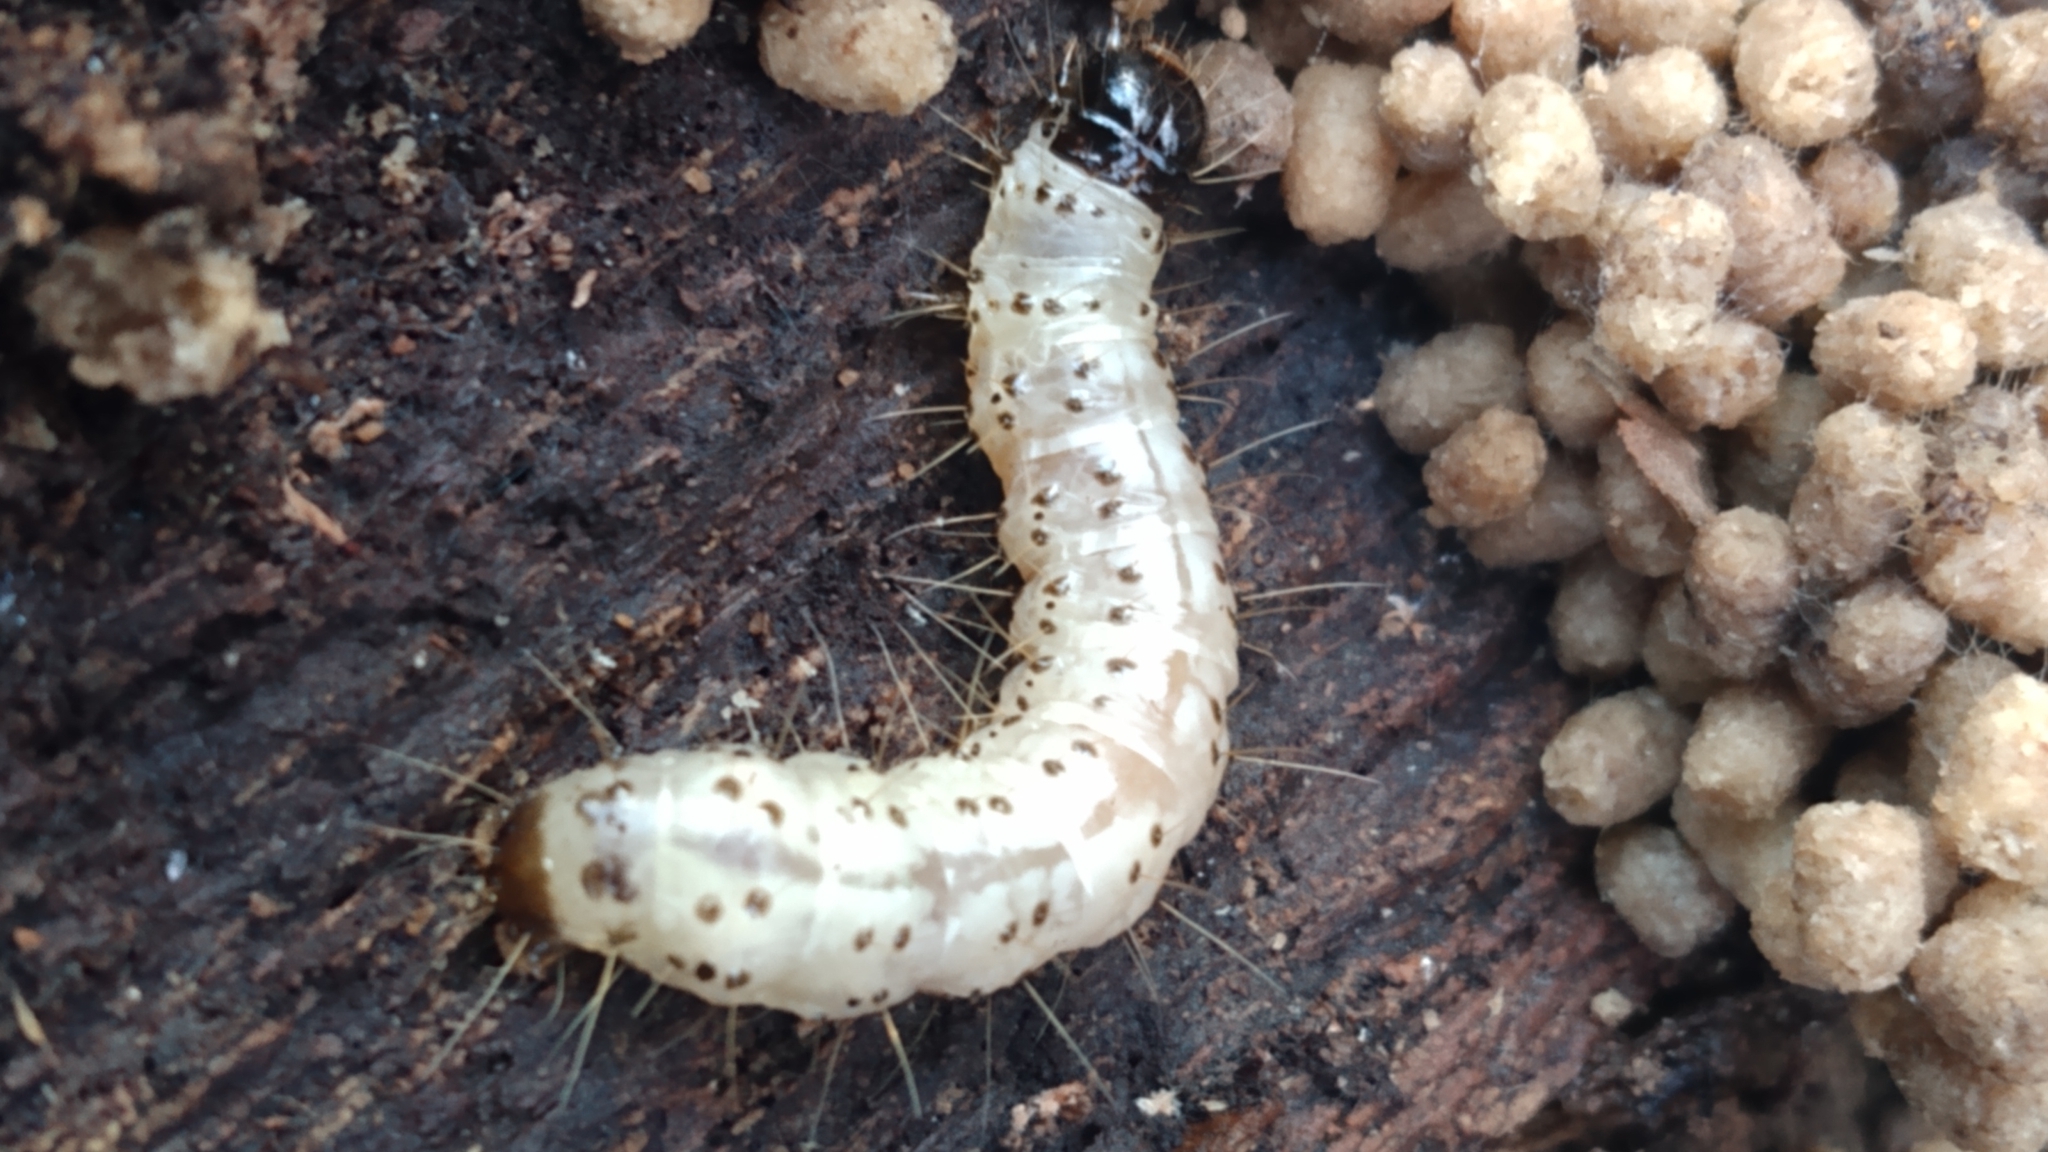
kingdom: Animalia
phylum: Arthropoda
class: Insecta
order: Lepidoptera
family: Erebidae
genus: Scolecocampa
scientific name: Scolecocampa liburna
